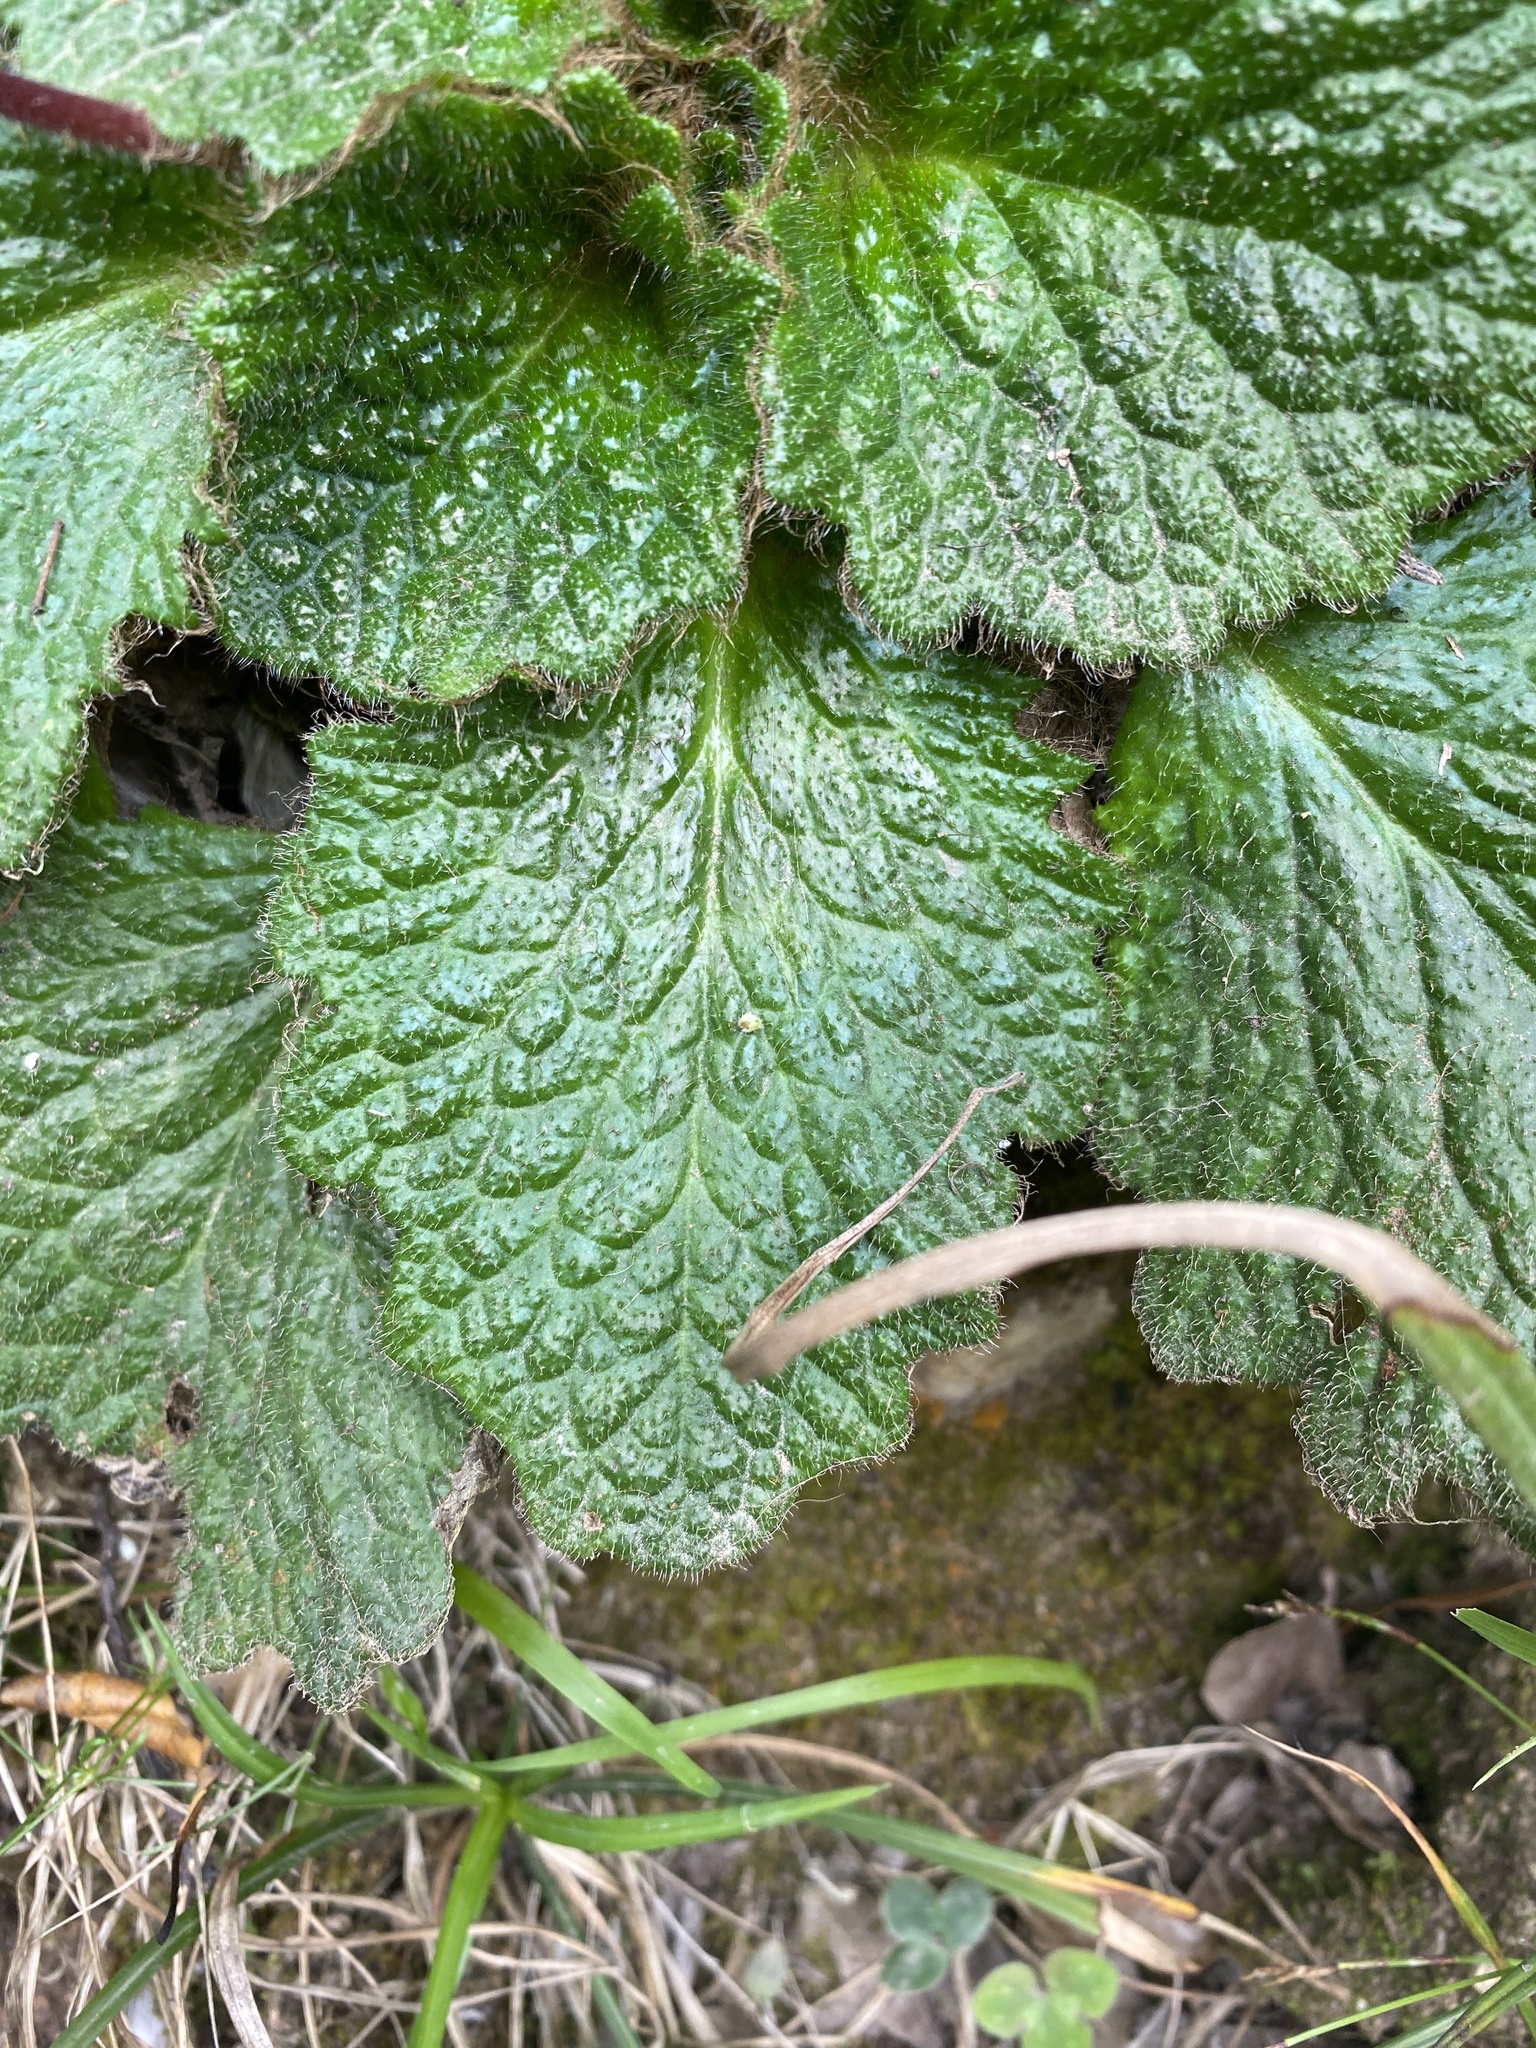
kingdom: Plantae
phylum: Tracheophyta
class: Magnoliopsida
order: Lamiales
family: Gesneriaceae
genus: Ramonda
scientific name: Ramonda myconi
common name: Pyrenean-violet
